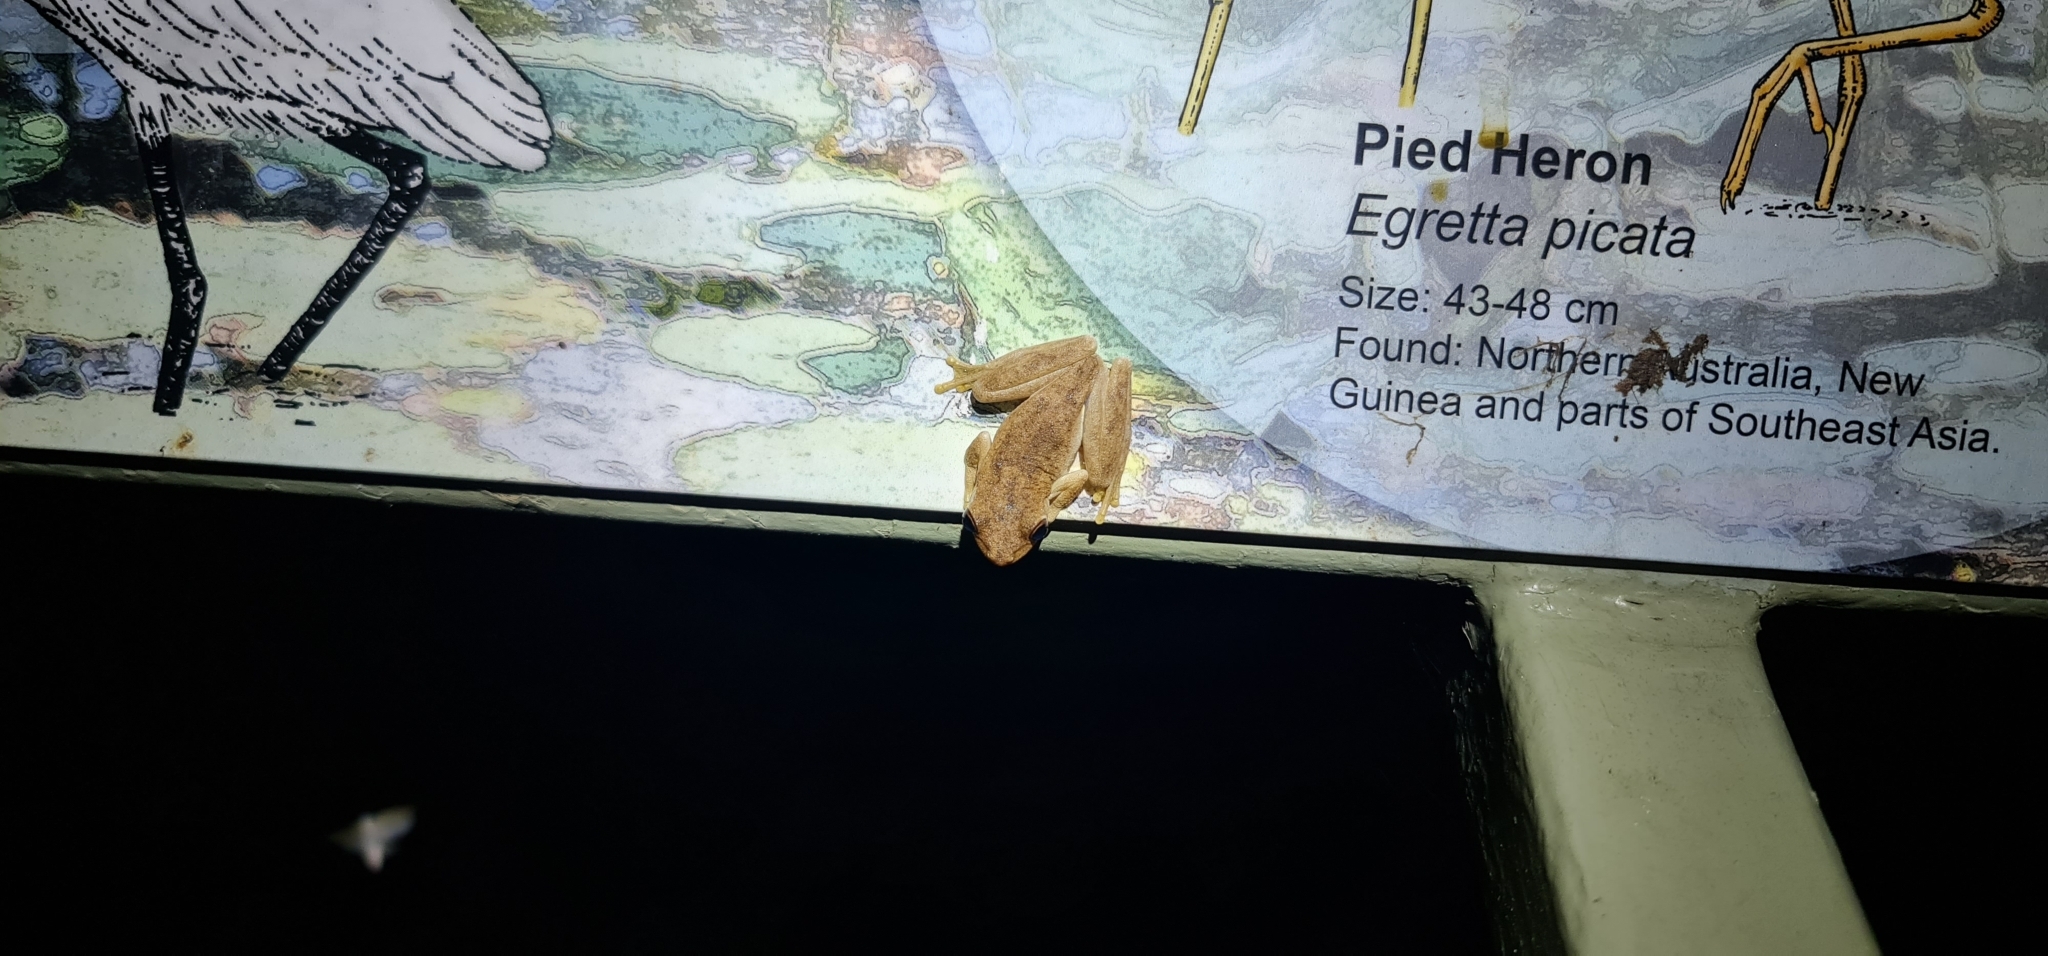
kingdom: Animalia
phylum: Chordata
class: Amphibia
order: Anura
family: Pelodryadidae
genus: Litoria
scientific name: Litoria
